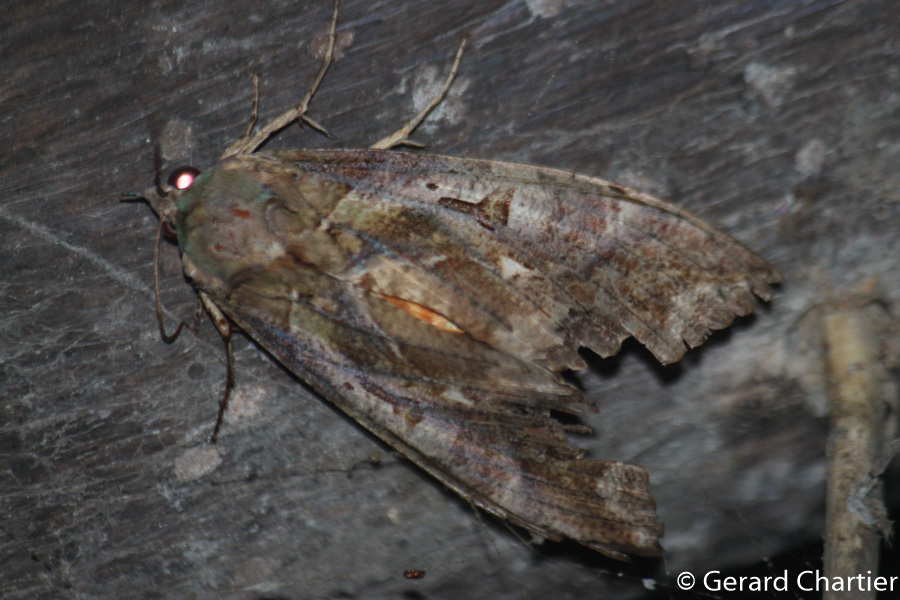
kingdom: Animalia
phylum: Arthropoda
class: Insecta
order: Lepidoptera
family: Erebidae
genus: Eudocima
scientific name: Eudocima phalonia
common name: Wasp
